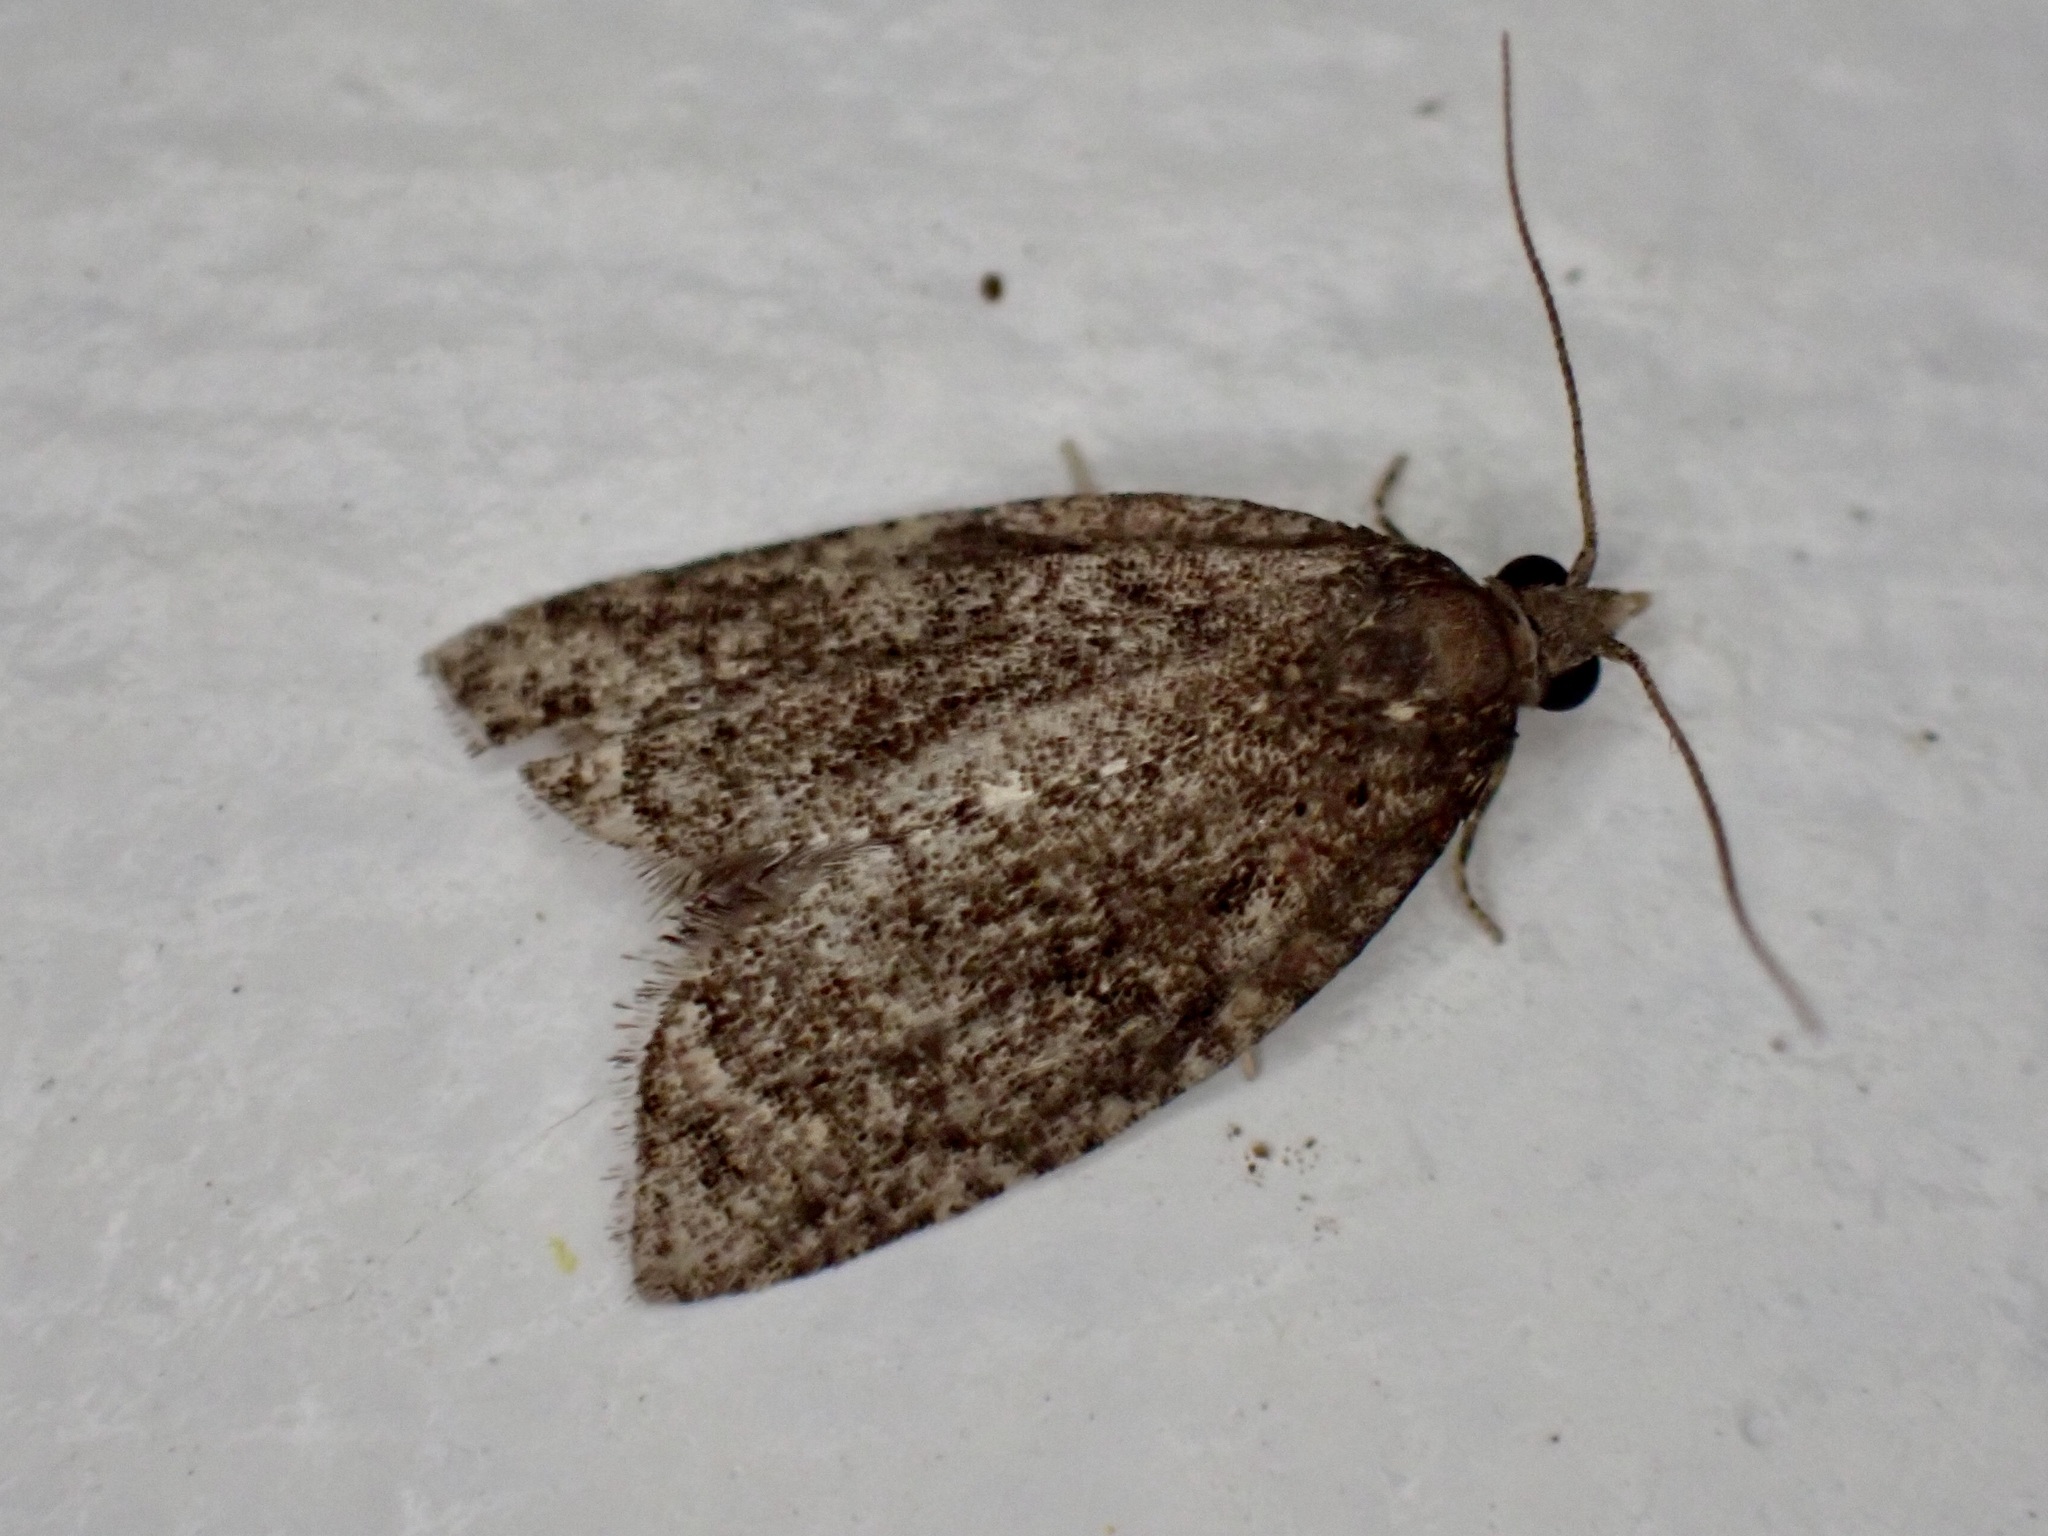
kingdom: Animalia
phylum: Arthropoda
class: Insecta
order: Lepidoptera
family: Tortricidae
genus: Capua
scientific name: Capua intractana
